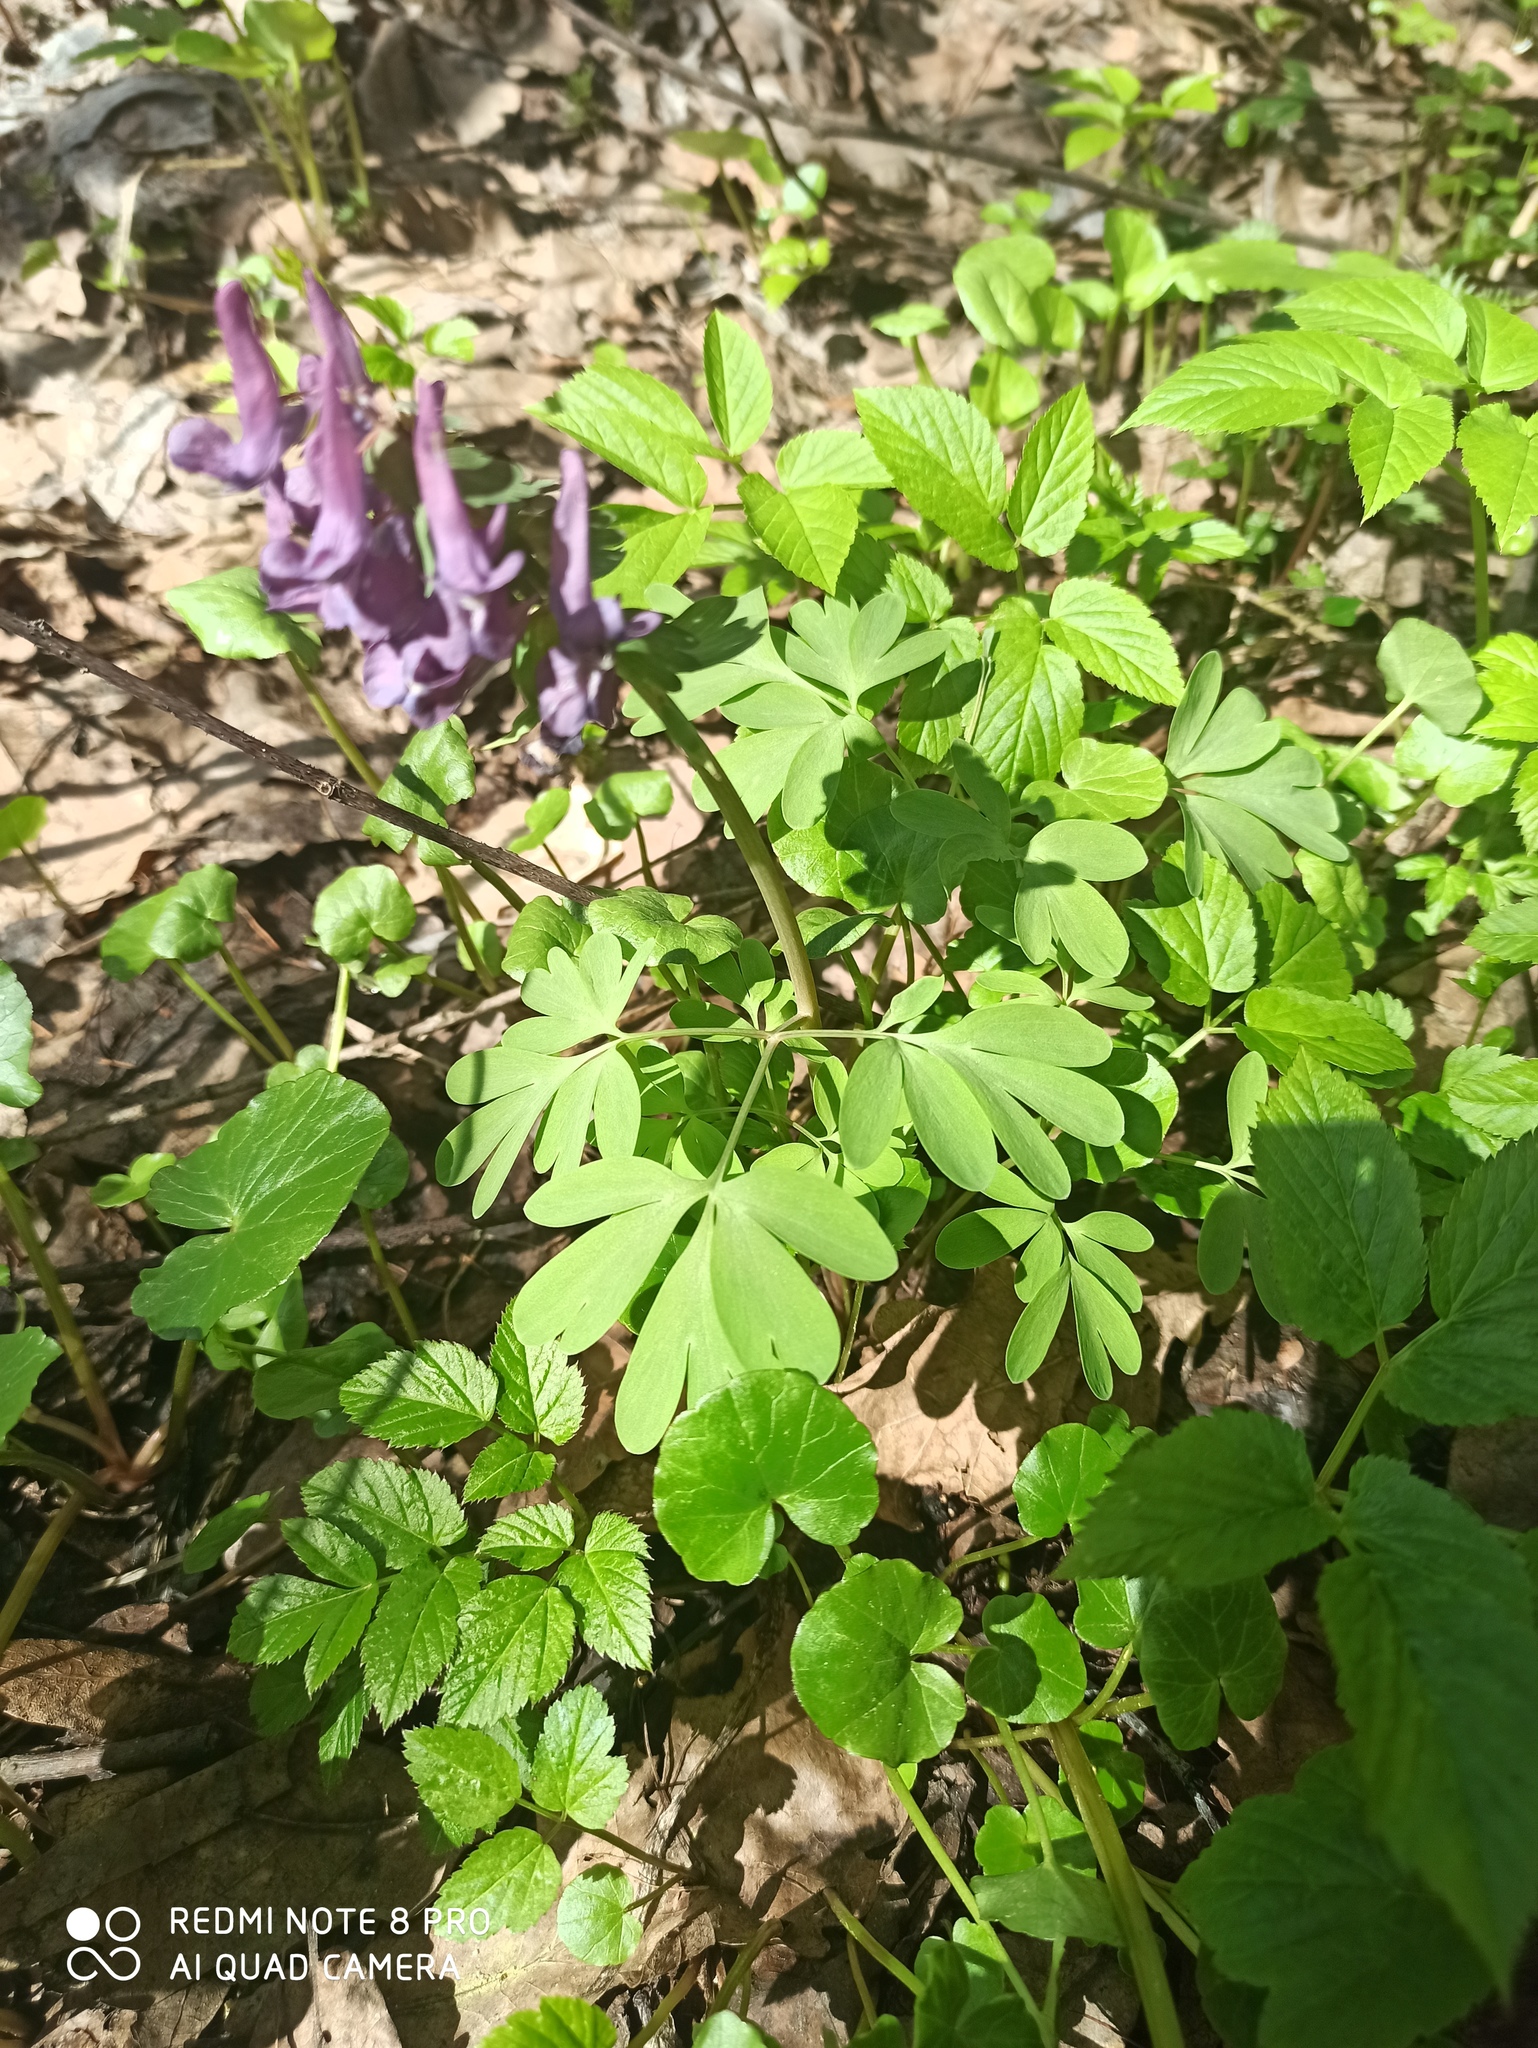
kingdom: Plantae
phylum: Tracheophyta
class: Magnoliopsida
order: Ranunculales
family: Papaveraceae
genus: Corydalis
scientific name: Corydalis solida
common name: Bird-in-a-bush
